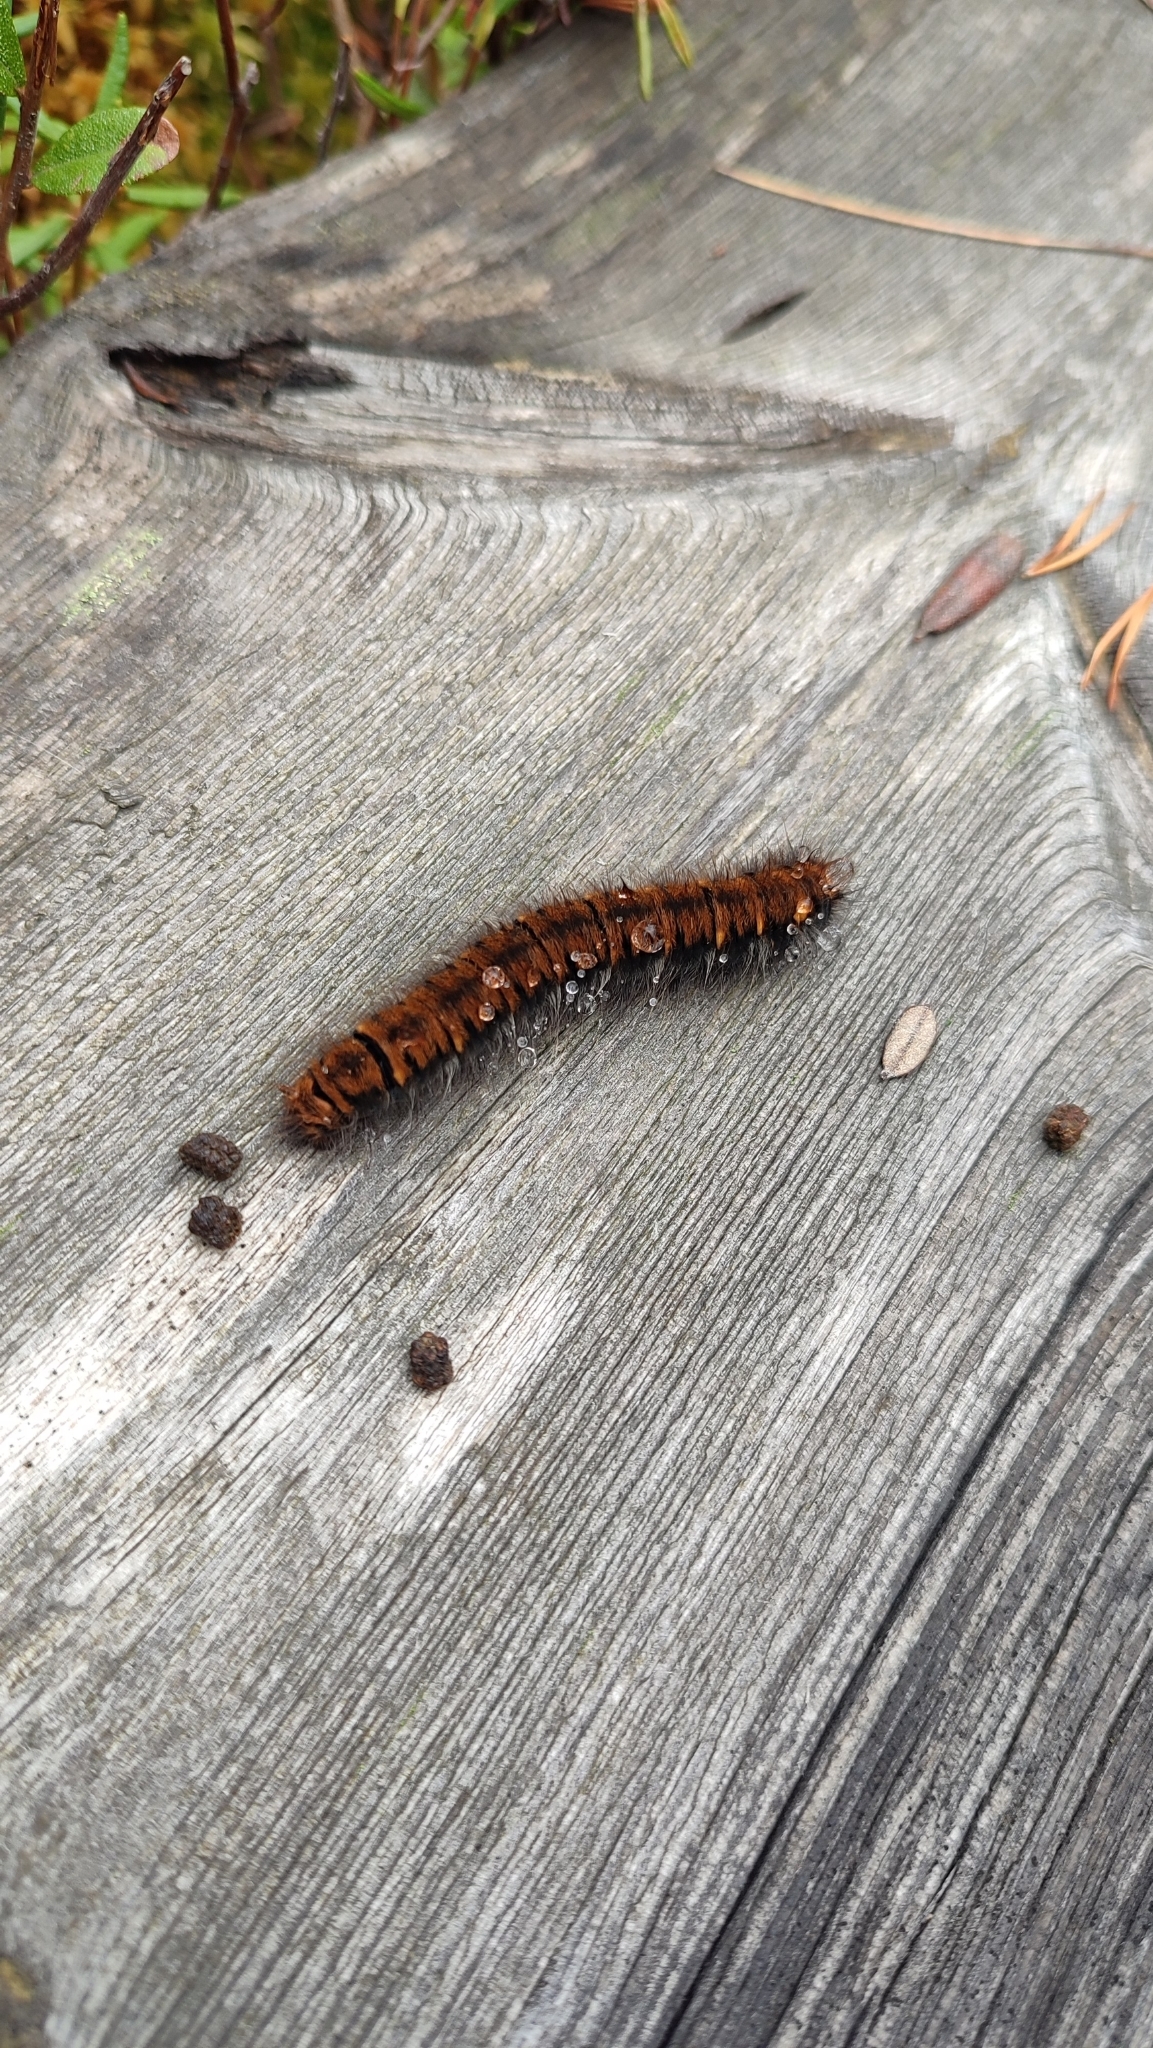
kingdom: Animalia
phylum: Arthropoda
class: Insecta
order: Lepidoptera
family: Lasiocampidae
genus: Macrothylacia
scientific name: Macrothylacia rubi
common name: Fox moth
